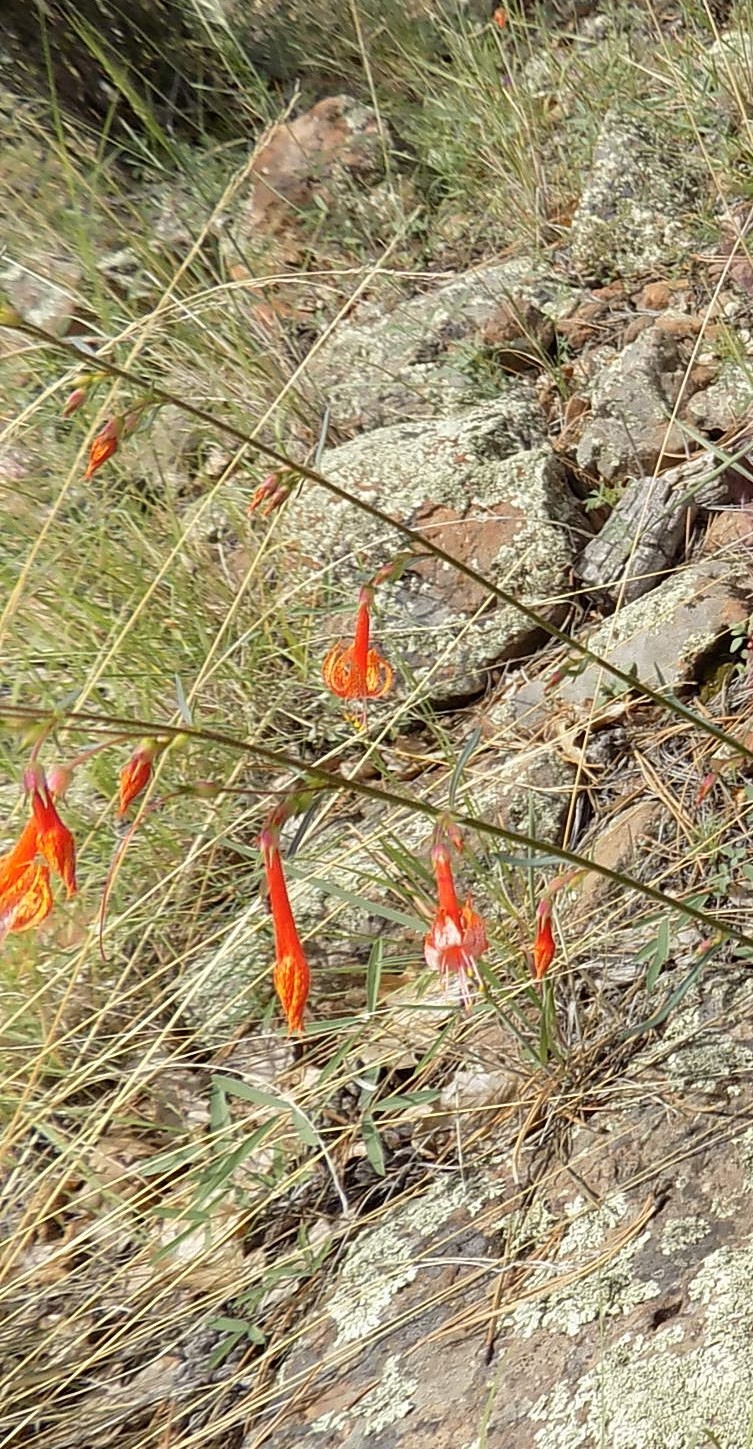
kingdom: Plantae
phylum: Tracheophyta
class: Magnoliopsida
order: Ericales
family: Polemoniaceae
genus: Ipomopsis
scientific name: Ipomopsis aggregata
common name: Scarlet gilia
